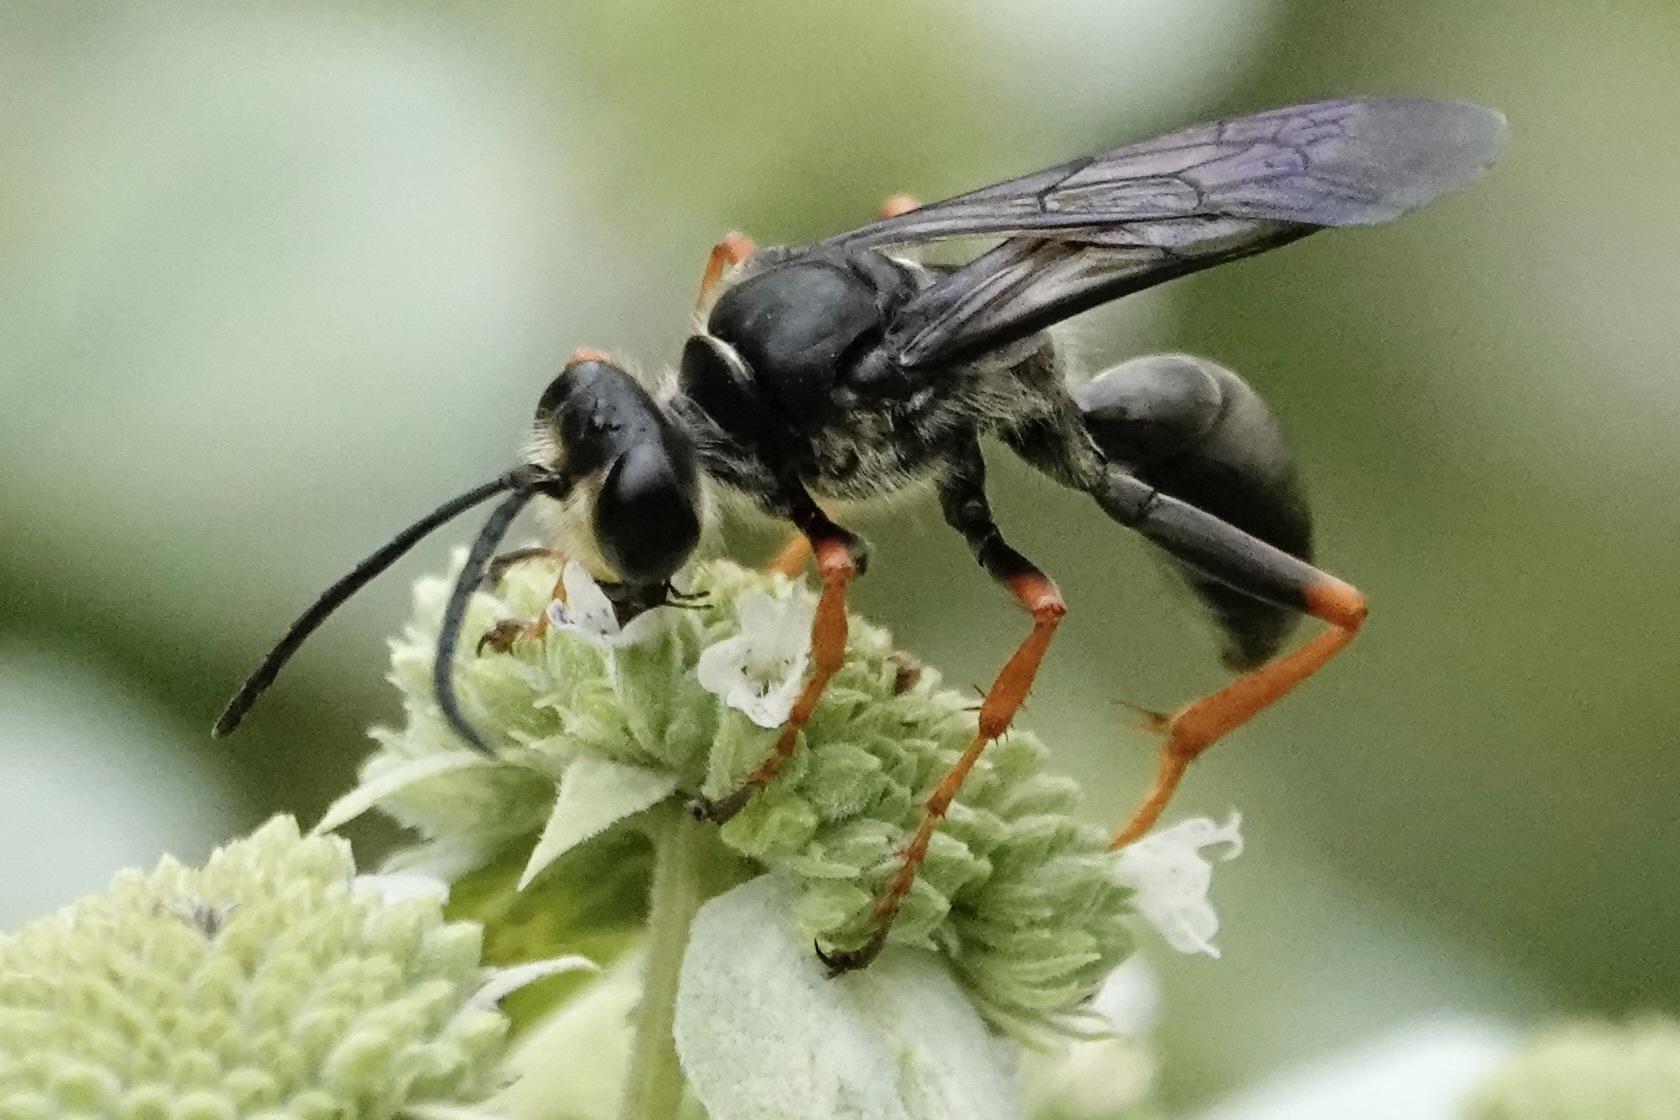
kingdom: Animalia
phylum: Arthropoda
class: Insecta
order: Hymenoptera
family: Sphecidae
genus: Sphex
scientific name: Sphex nudus
